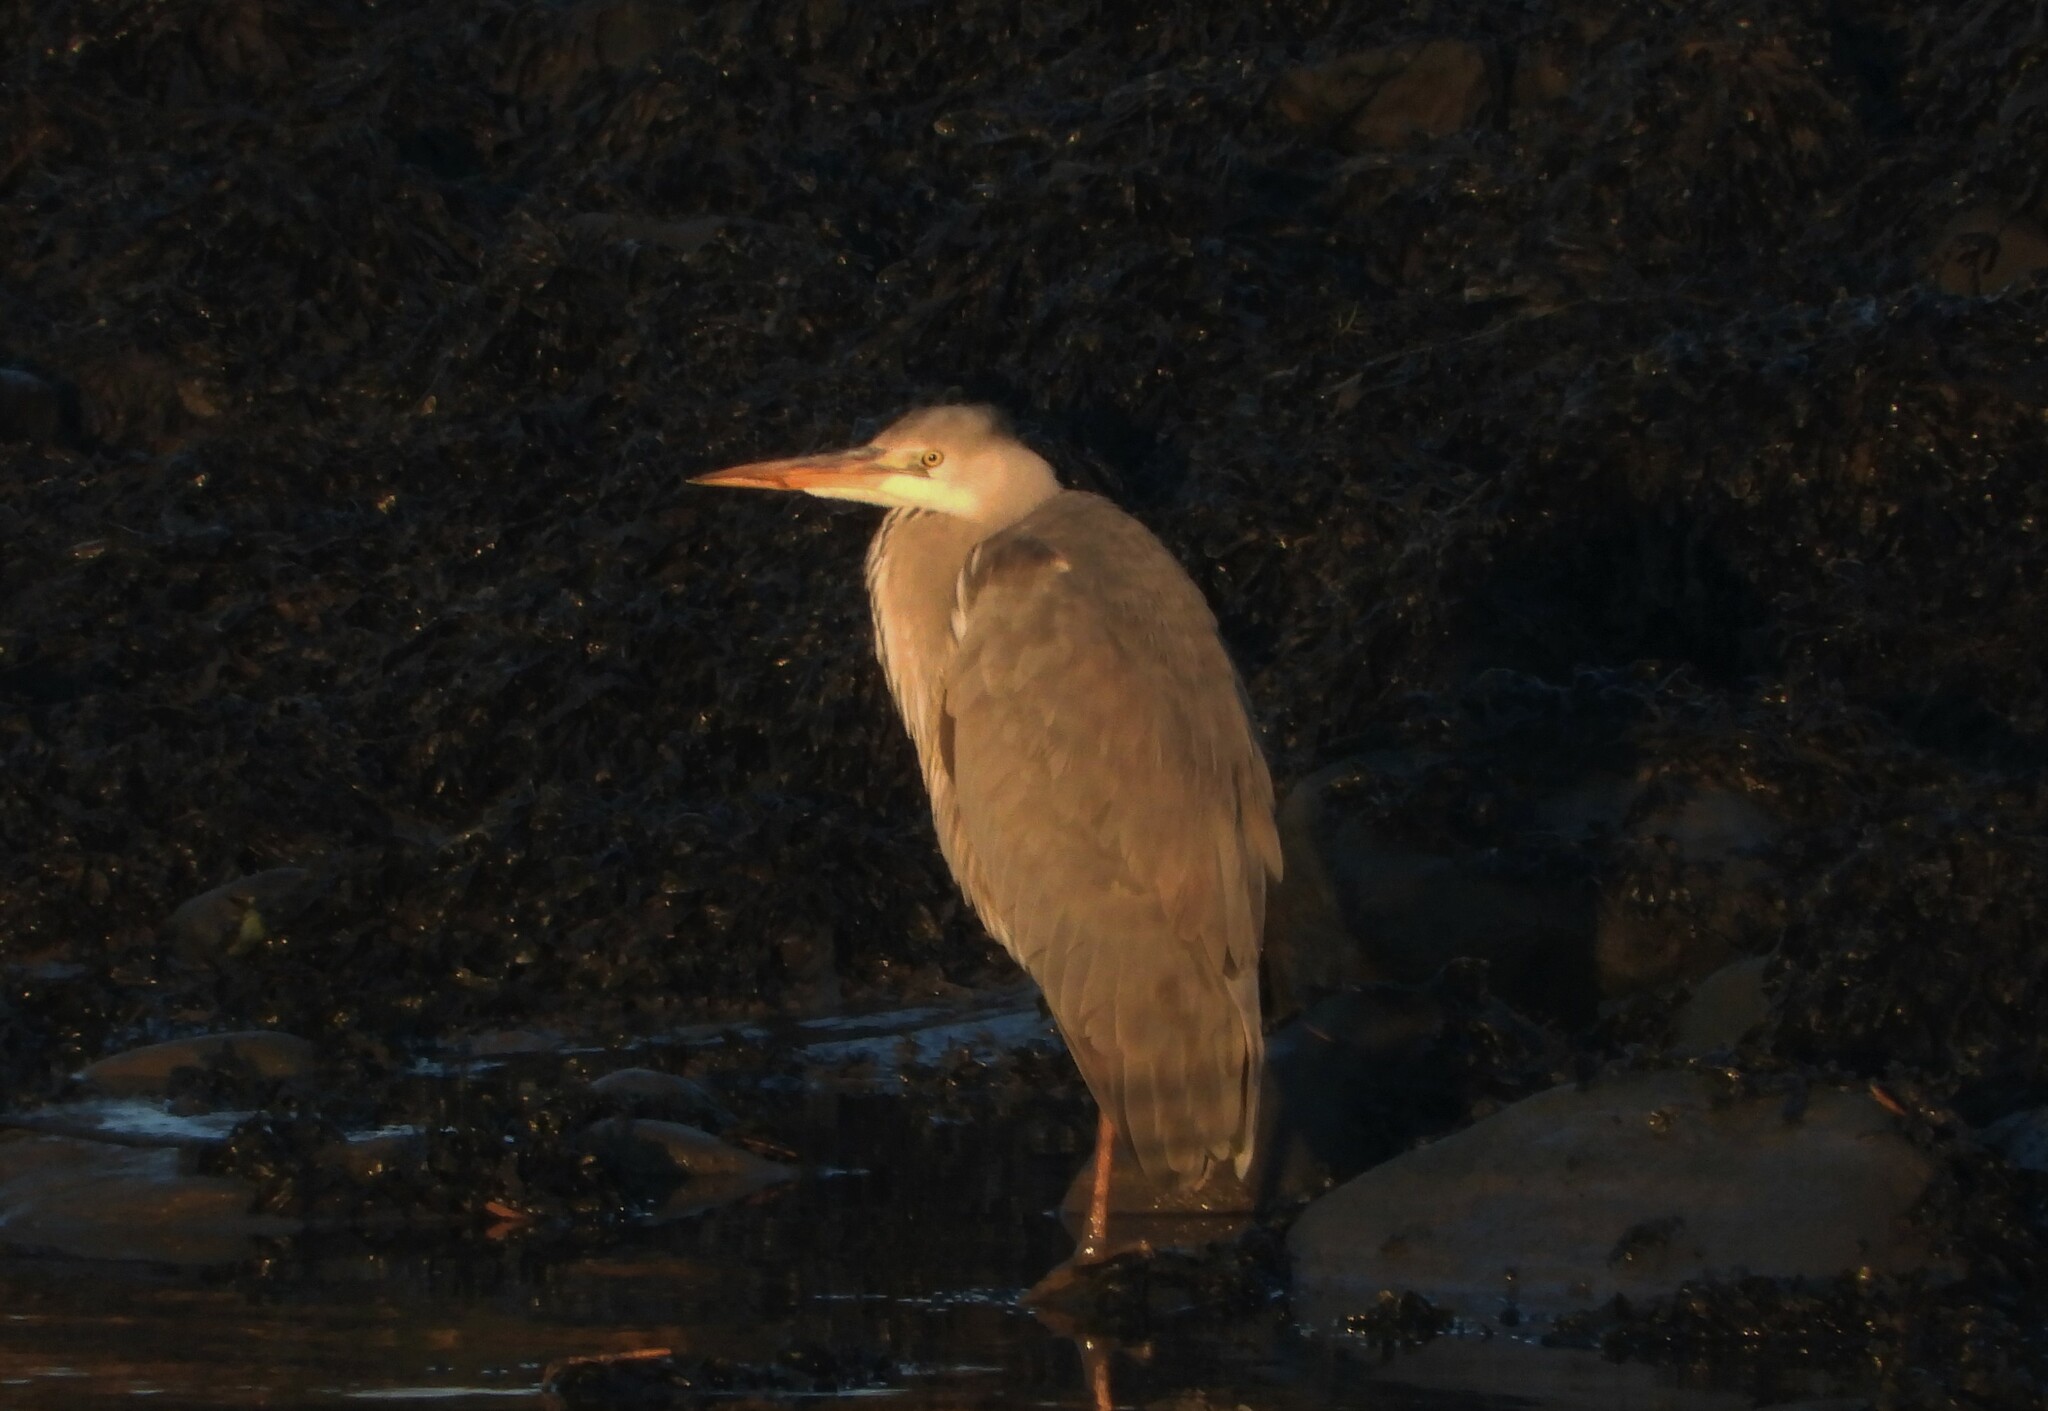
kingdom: Animalia
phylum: Chordata
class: Aves
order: Pelecaniformes
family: Ardeidae
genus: Ardea
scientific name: Ardea cinerea
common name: Grey heron
